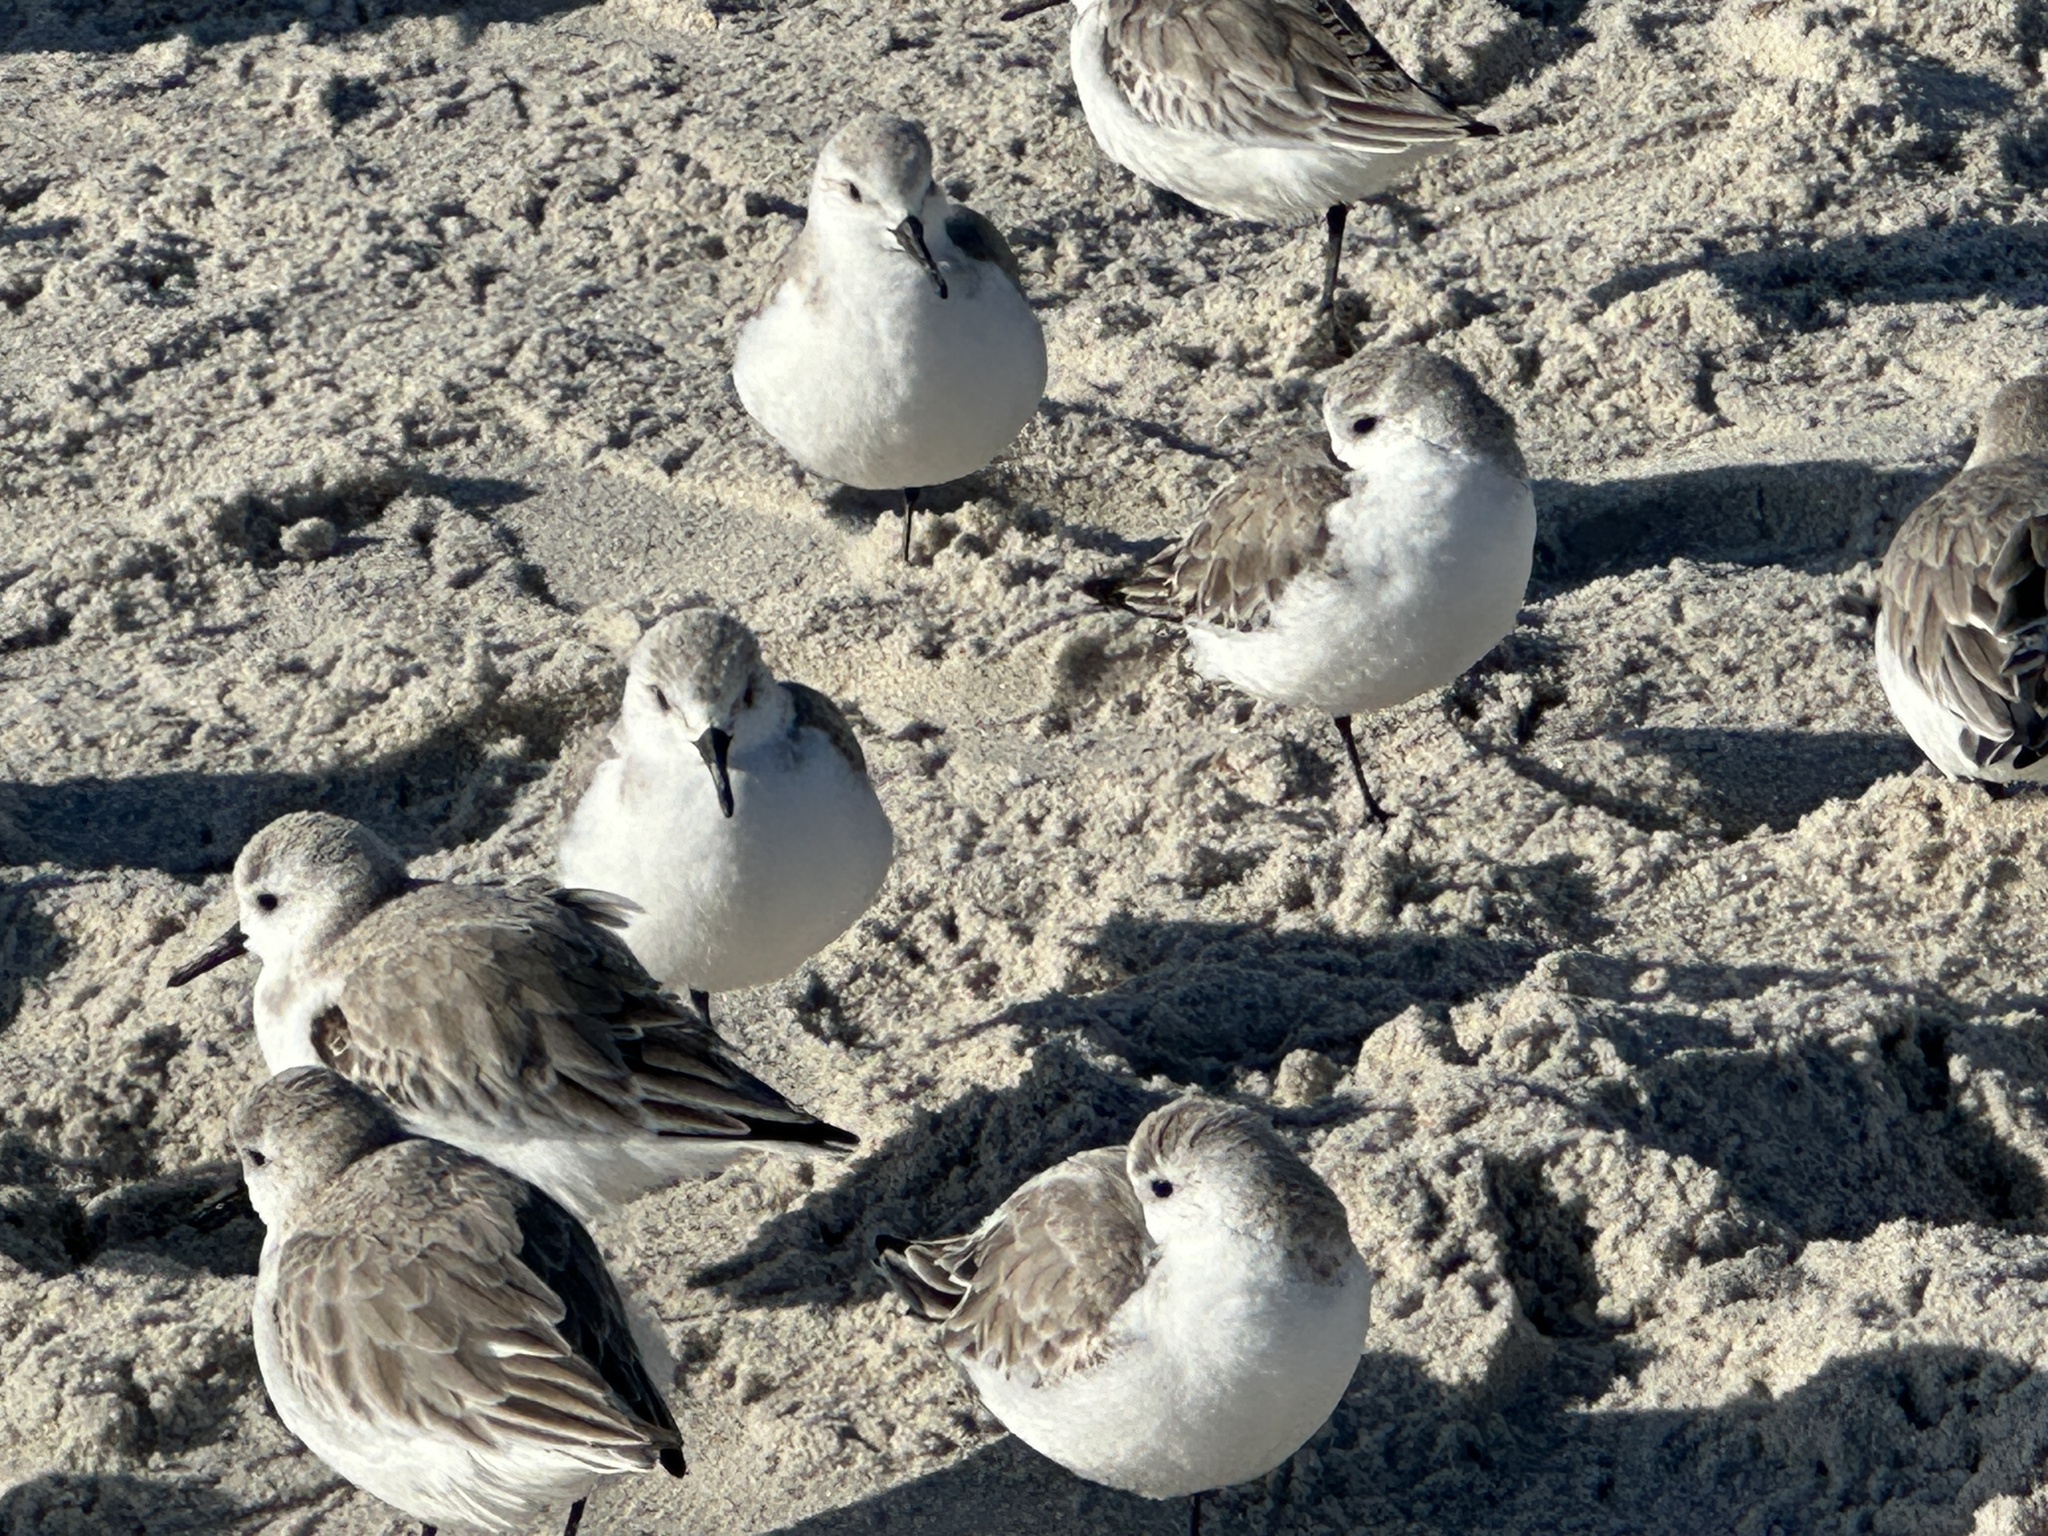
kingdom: Animalia
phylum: Chordata
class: Aves
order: Charadriiformes
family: Scolopacidae
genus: Calidris
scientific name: Calidris alba
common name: Sanderling
